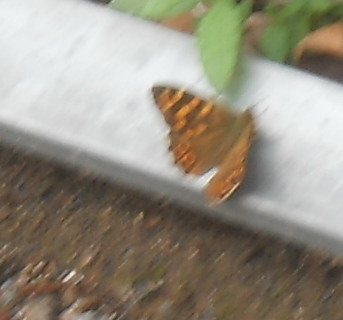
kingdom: Animalia
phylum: Arthropoda
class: Insecta
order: Lepidoptera
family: Nymphalidae
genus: Pararge
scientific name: Pararge aegeria
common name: Speckled wood
